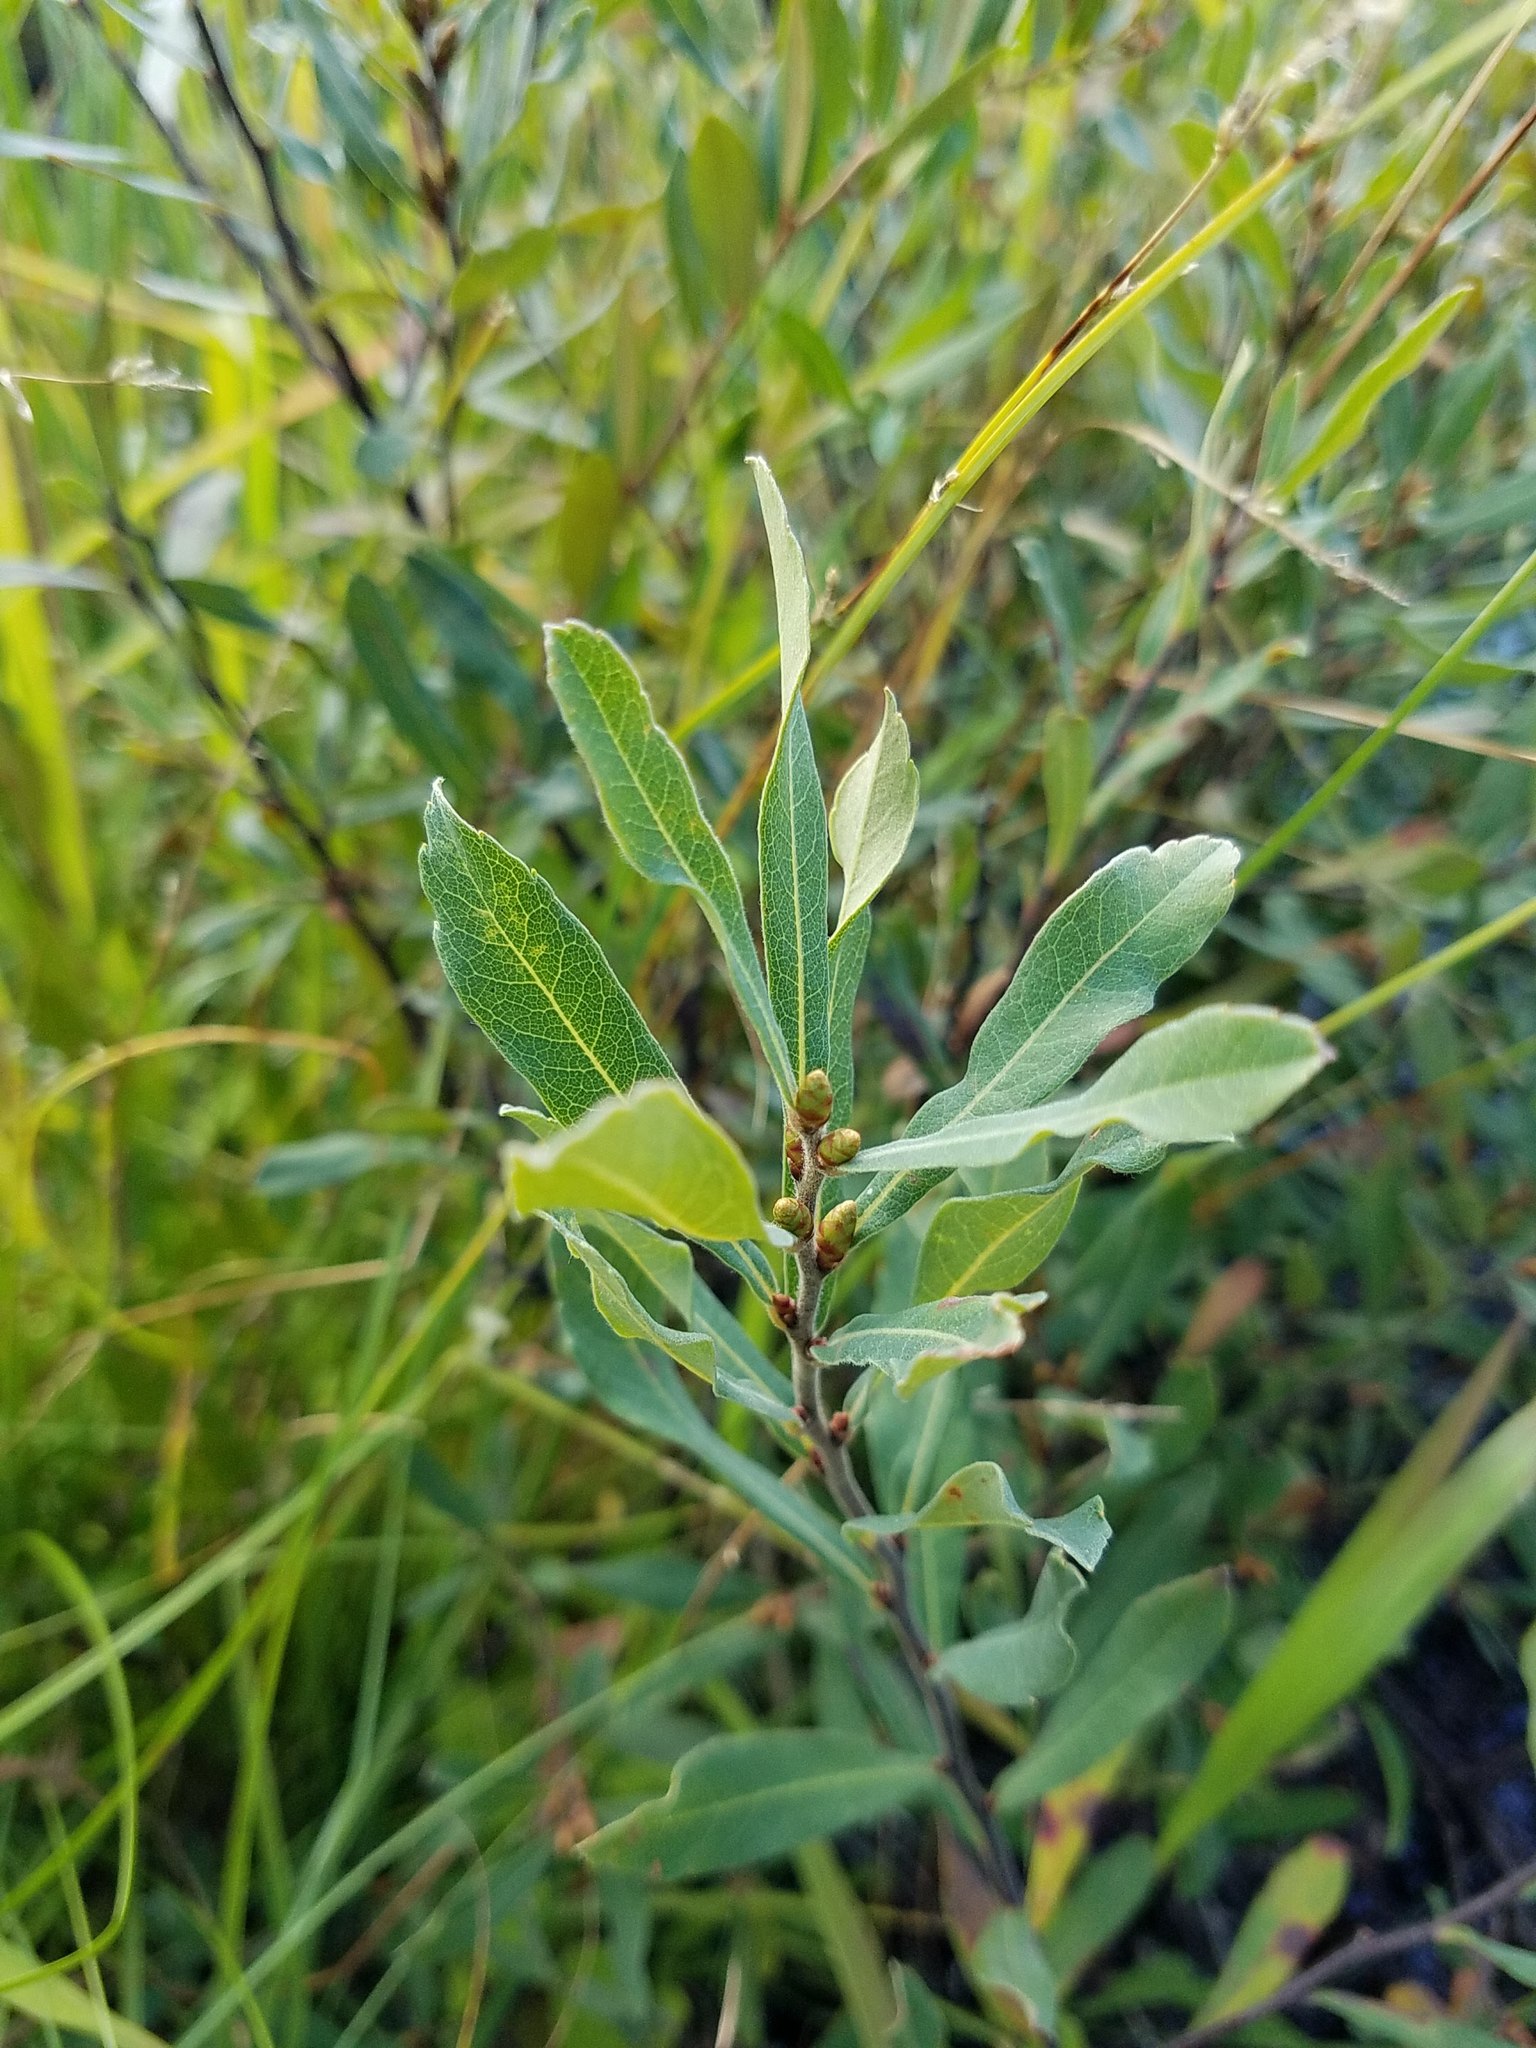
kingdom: Plantae
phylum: Tracheophyta
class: Magnoliopsida
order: Fagales
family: Myricaceae
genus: Myrica
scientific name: Myrica gale
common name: Sweet gale
